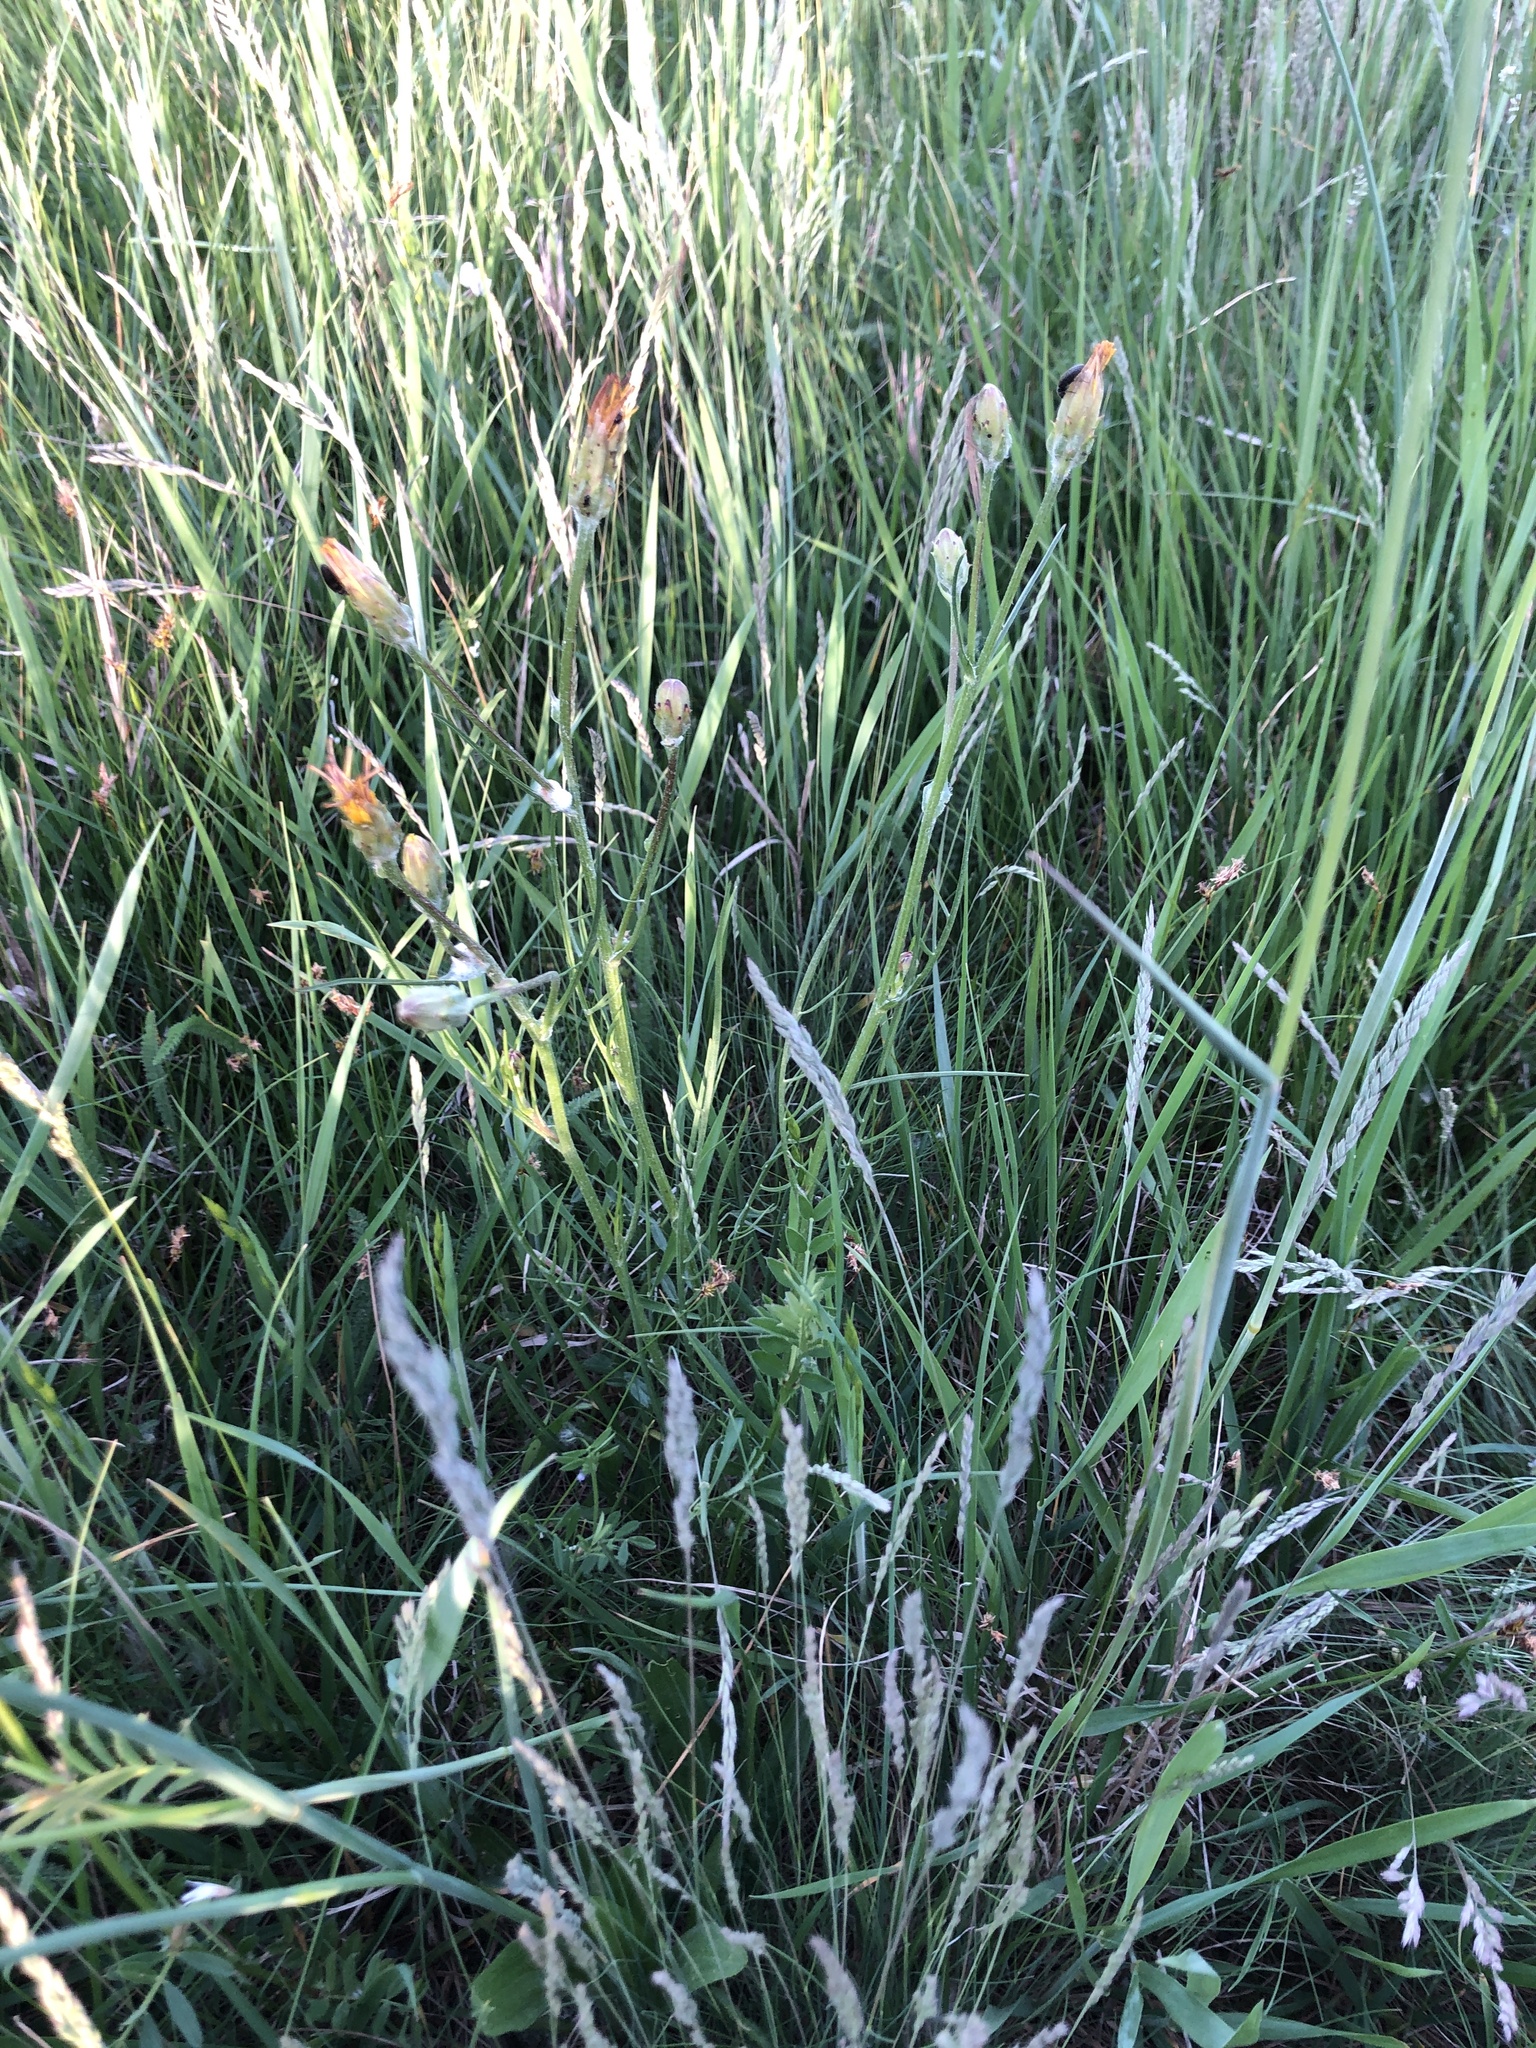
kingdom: Plantae
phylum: Tracheophyta
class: Magnoliopsida
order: Asterales
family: Asteraceae
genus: Scorzonera
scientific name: Scorzonera cana
